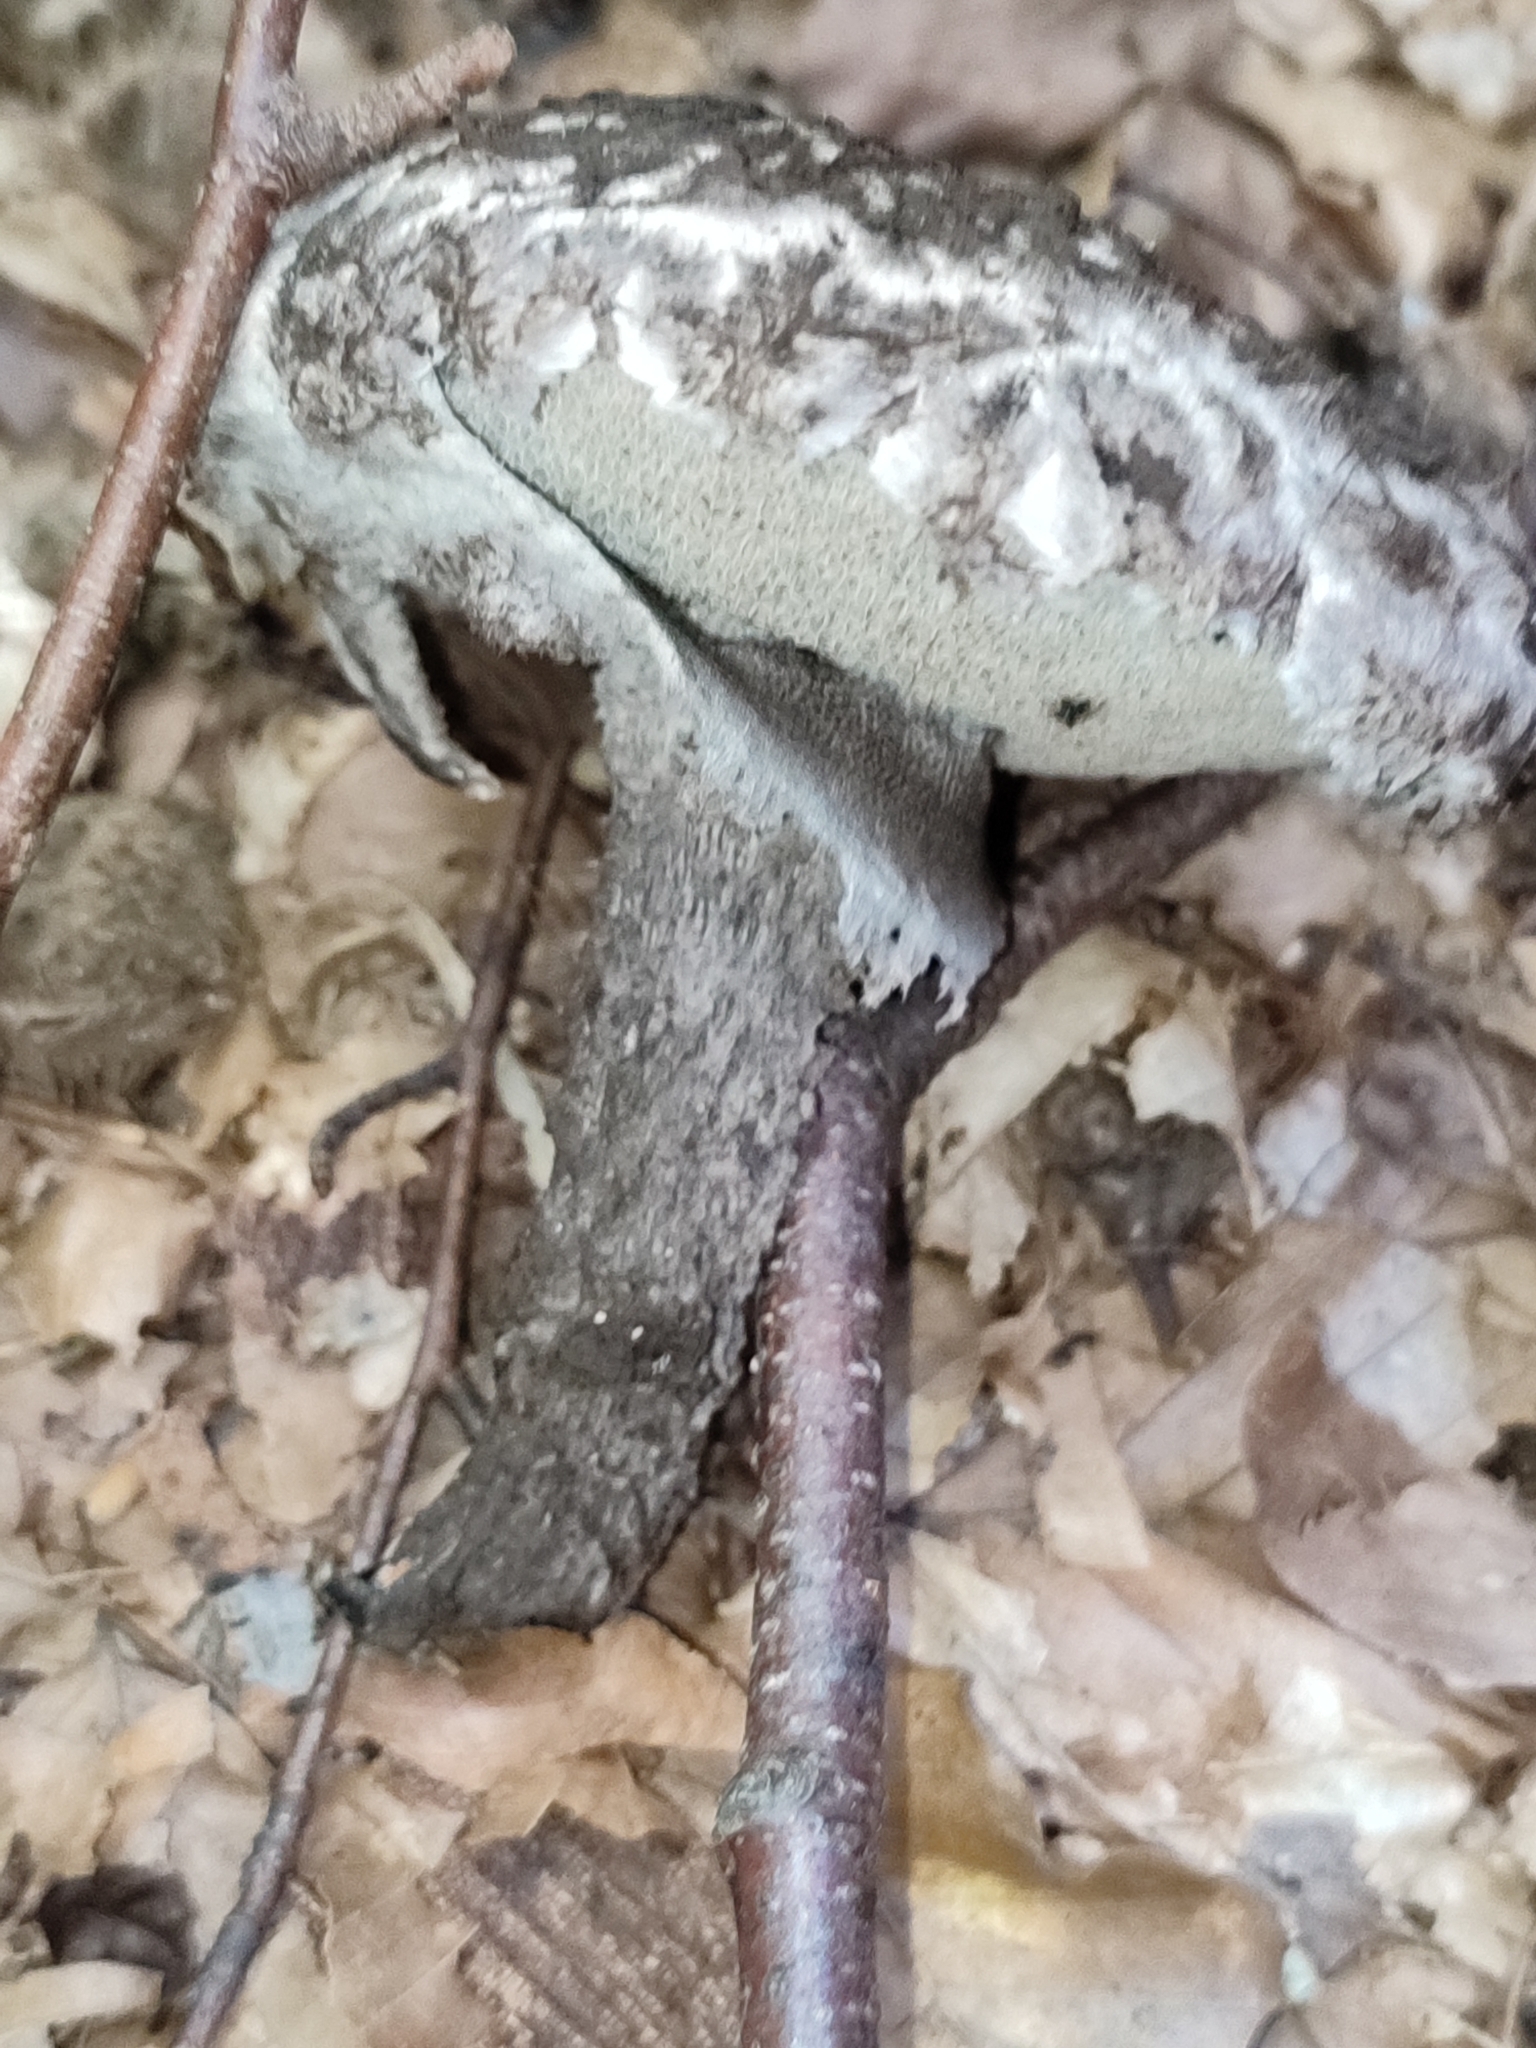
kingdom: Fungi
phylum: Basidiomycota
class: Agaricomycetes
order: Boletales
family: Boletaceae
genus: Strobilomyces
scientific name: Strobilomyces strobilaceus
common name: Old man of the woods
